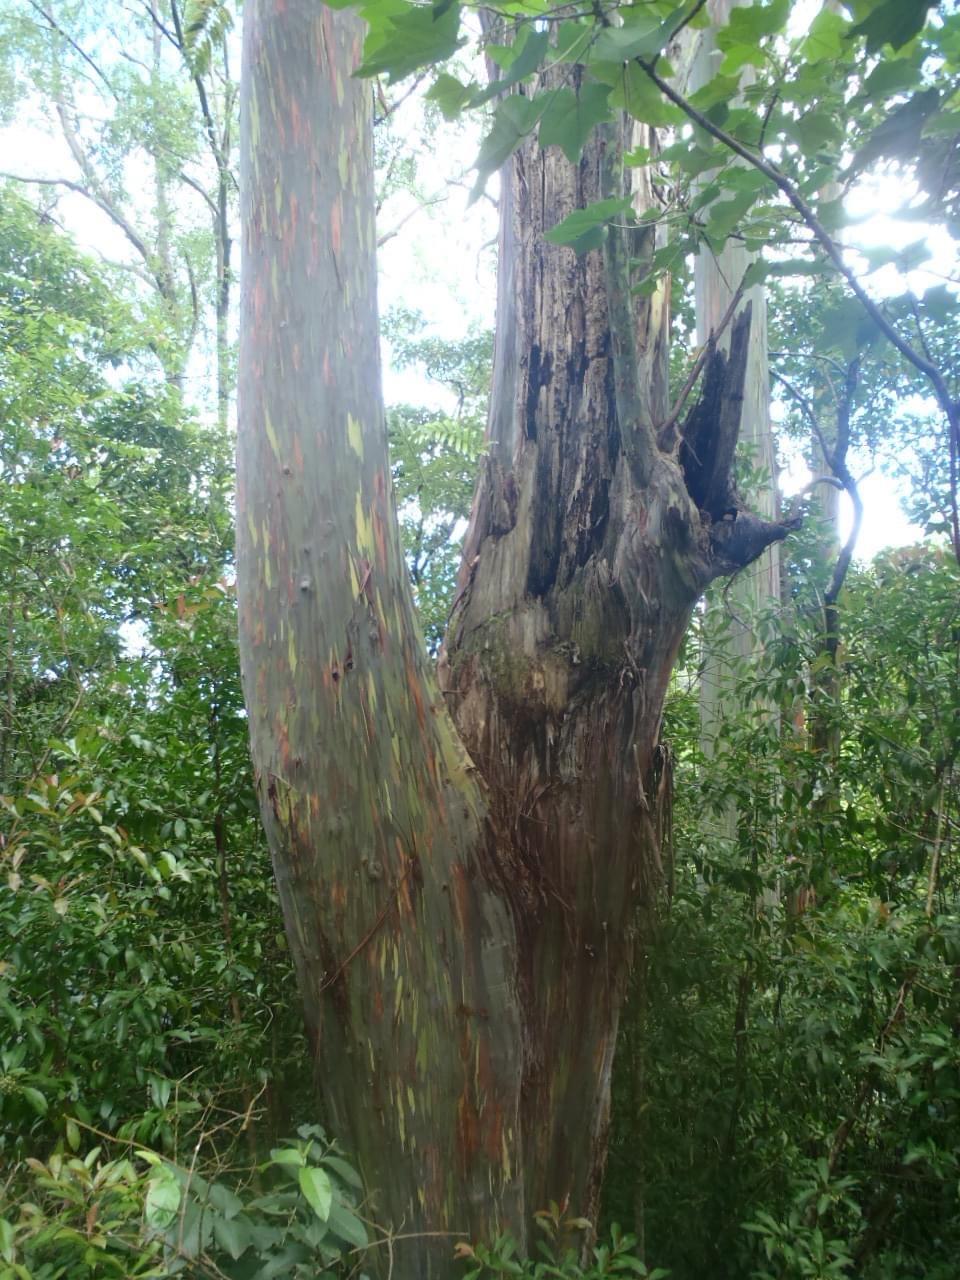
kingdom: Plantae
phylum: Tracheophyta
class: Magnoliopsida
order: Myrtales
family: Myrtaceae
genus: Eucalyptus
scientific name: Eucalyptus deglupta
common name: Mindanao gum
